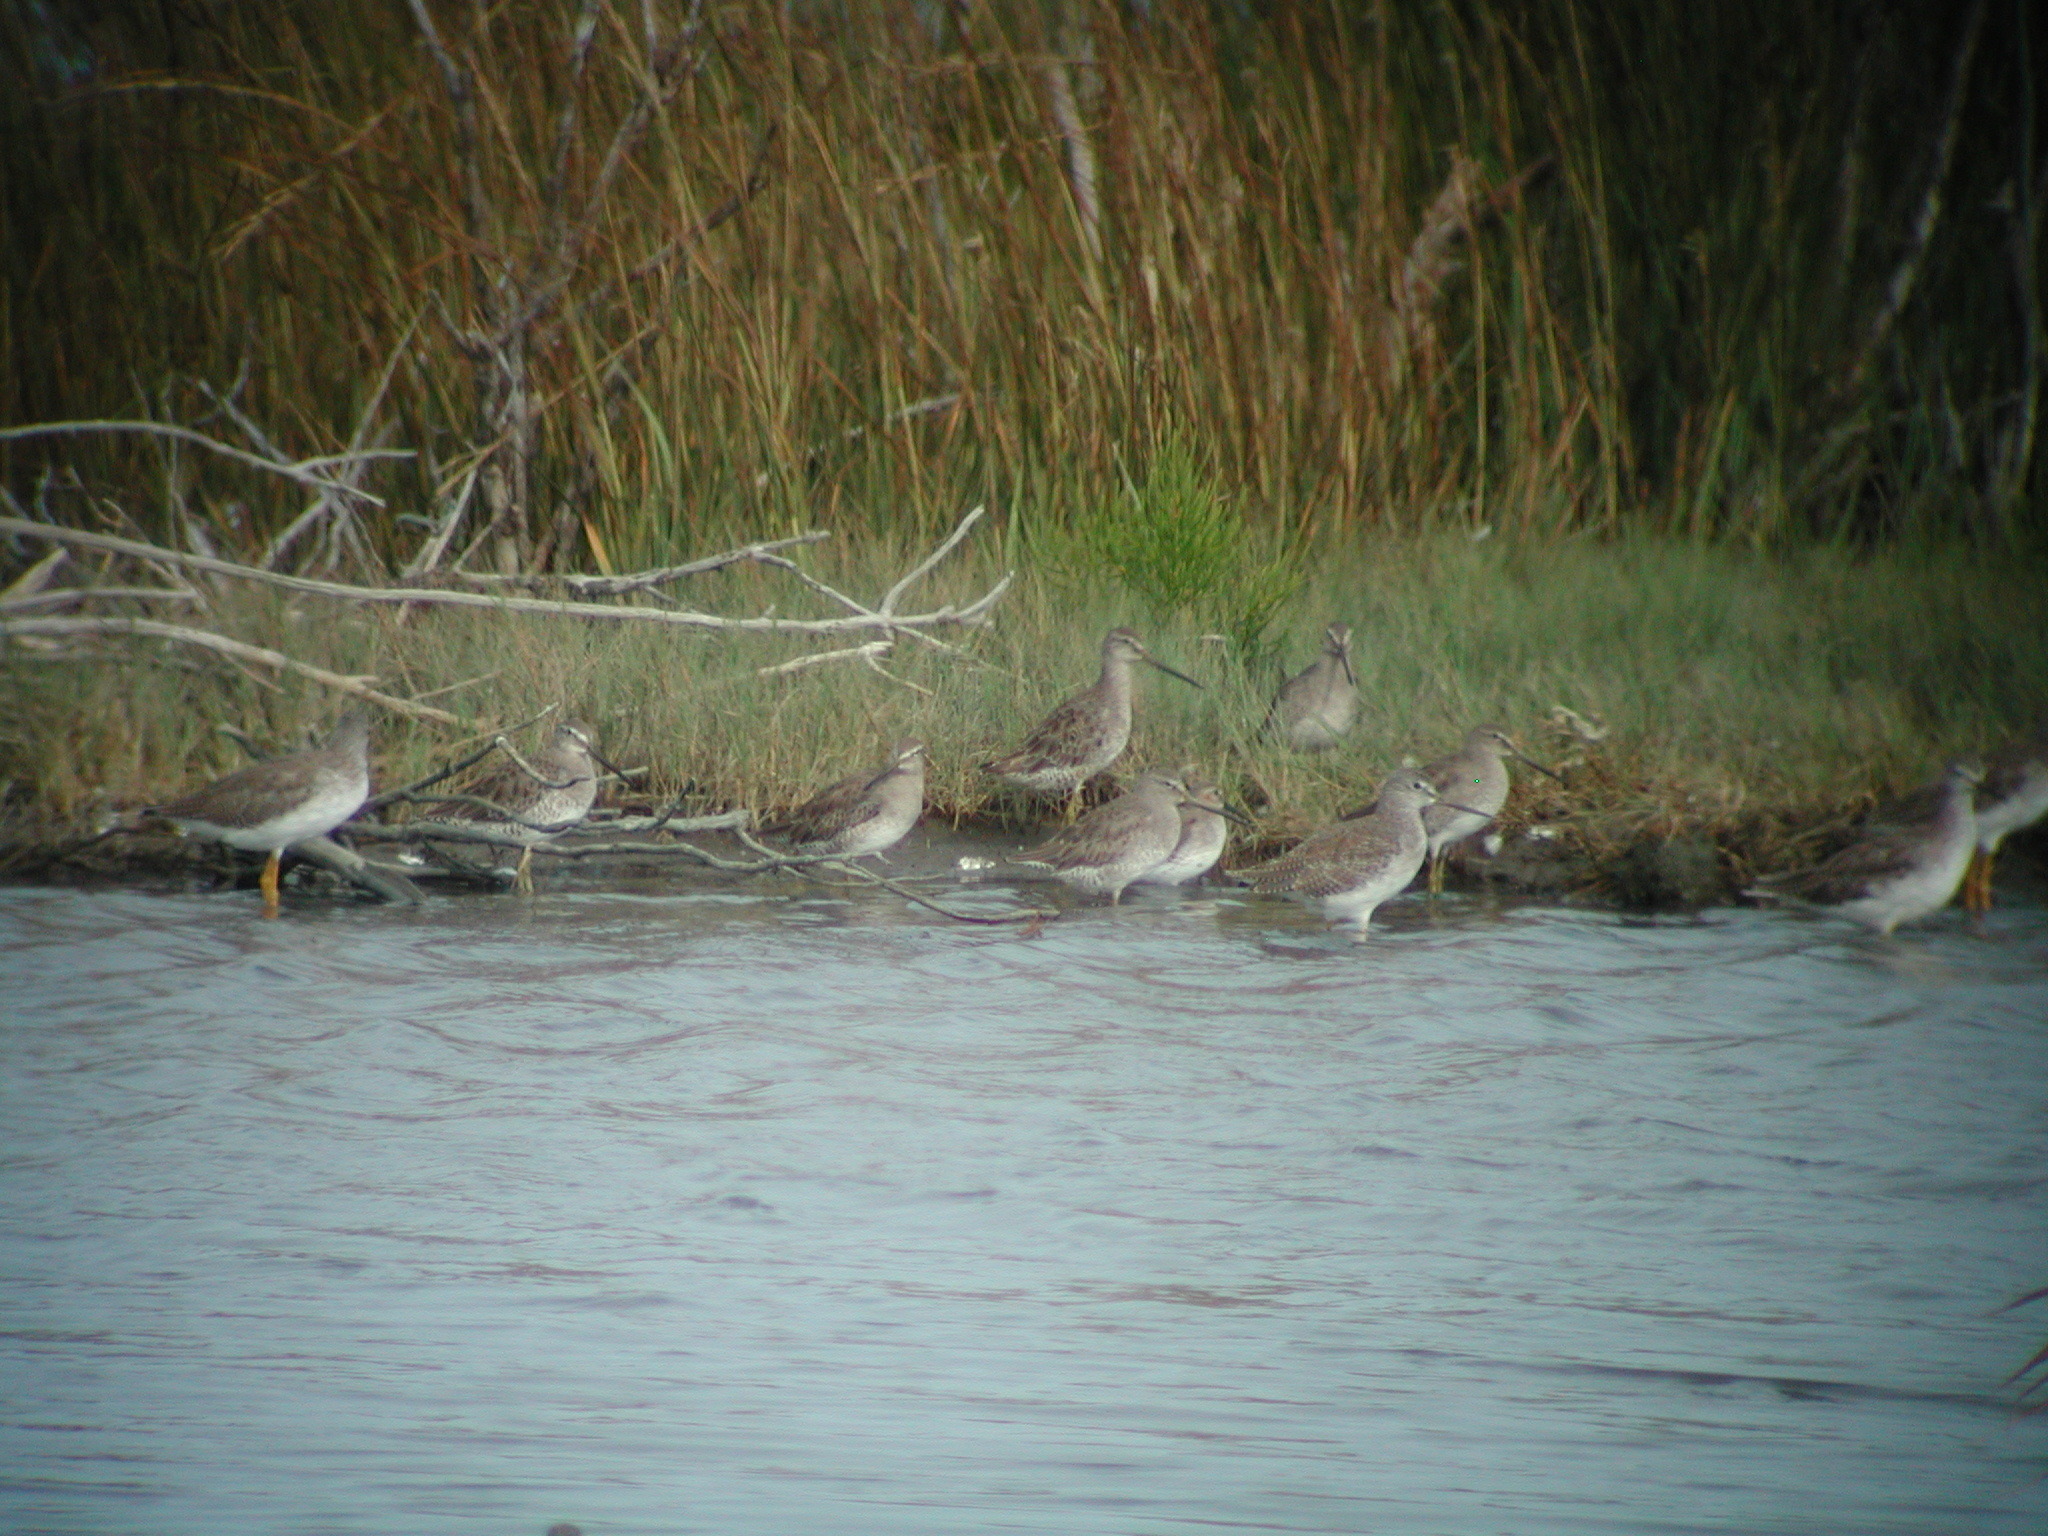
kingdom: Animalia
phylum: Chordata
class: Aves
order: Charadriiformes
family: Scolopacidae
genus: Limnodromus
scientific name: Limnodromus
